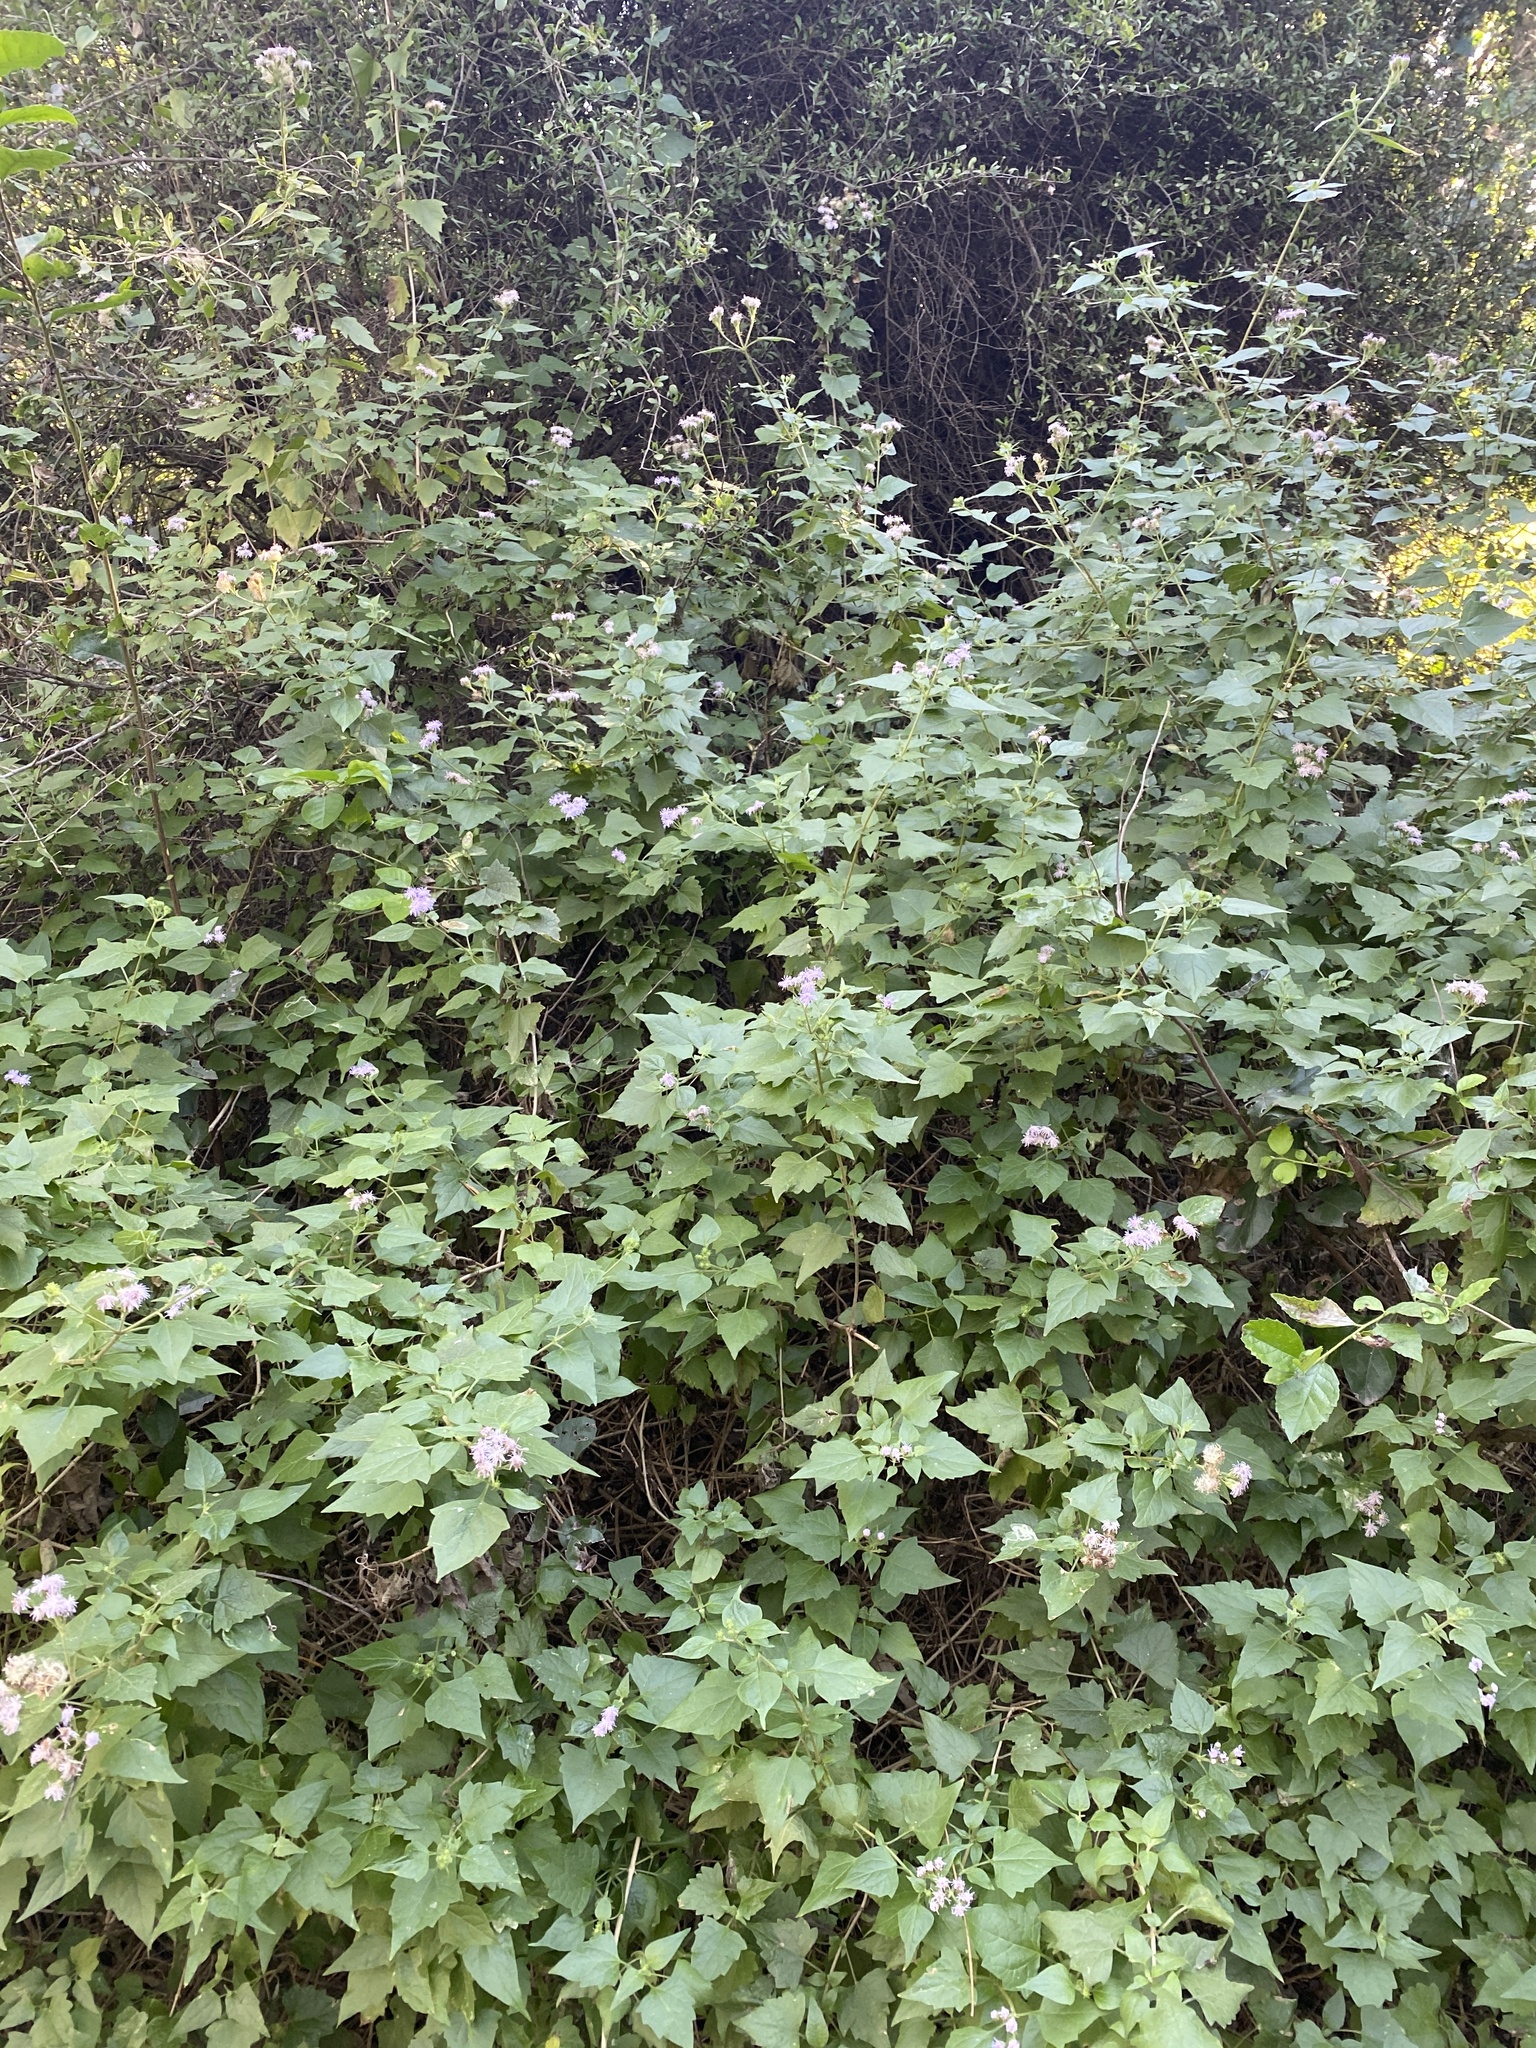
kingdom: Plantae
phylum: Tracheophyta
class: Magnoliopsida
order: Asterales
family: Asteraceae
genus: Tamaulipa
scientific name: Tamaulipa azurea
